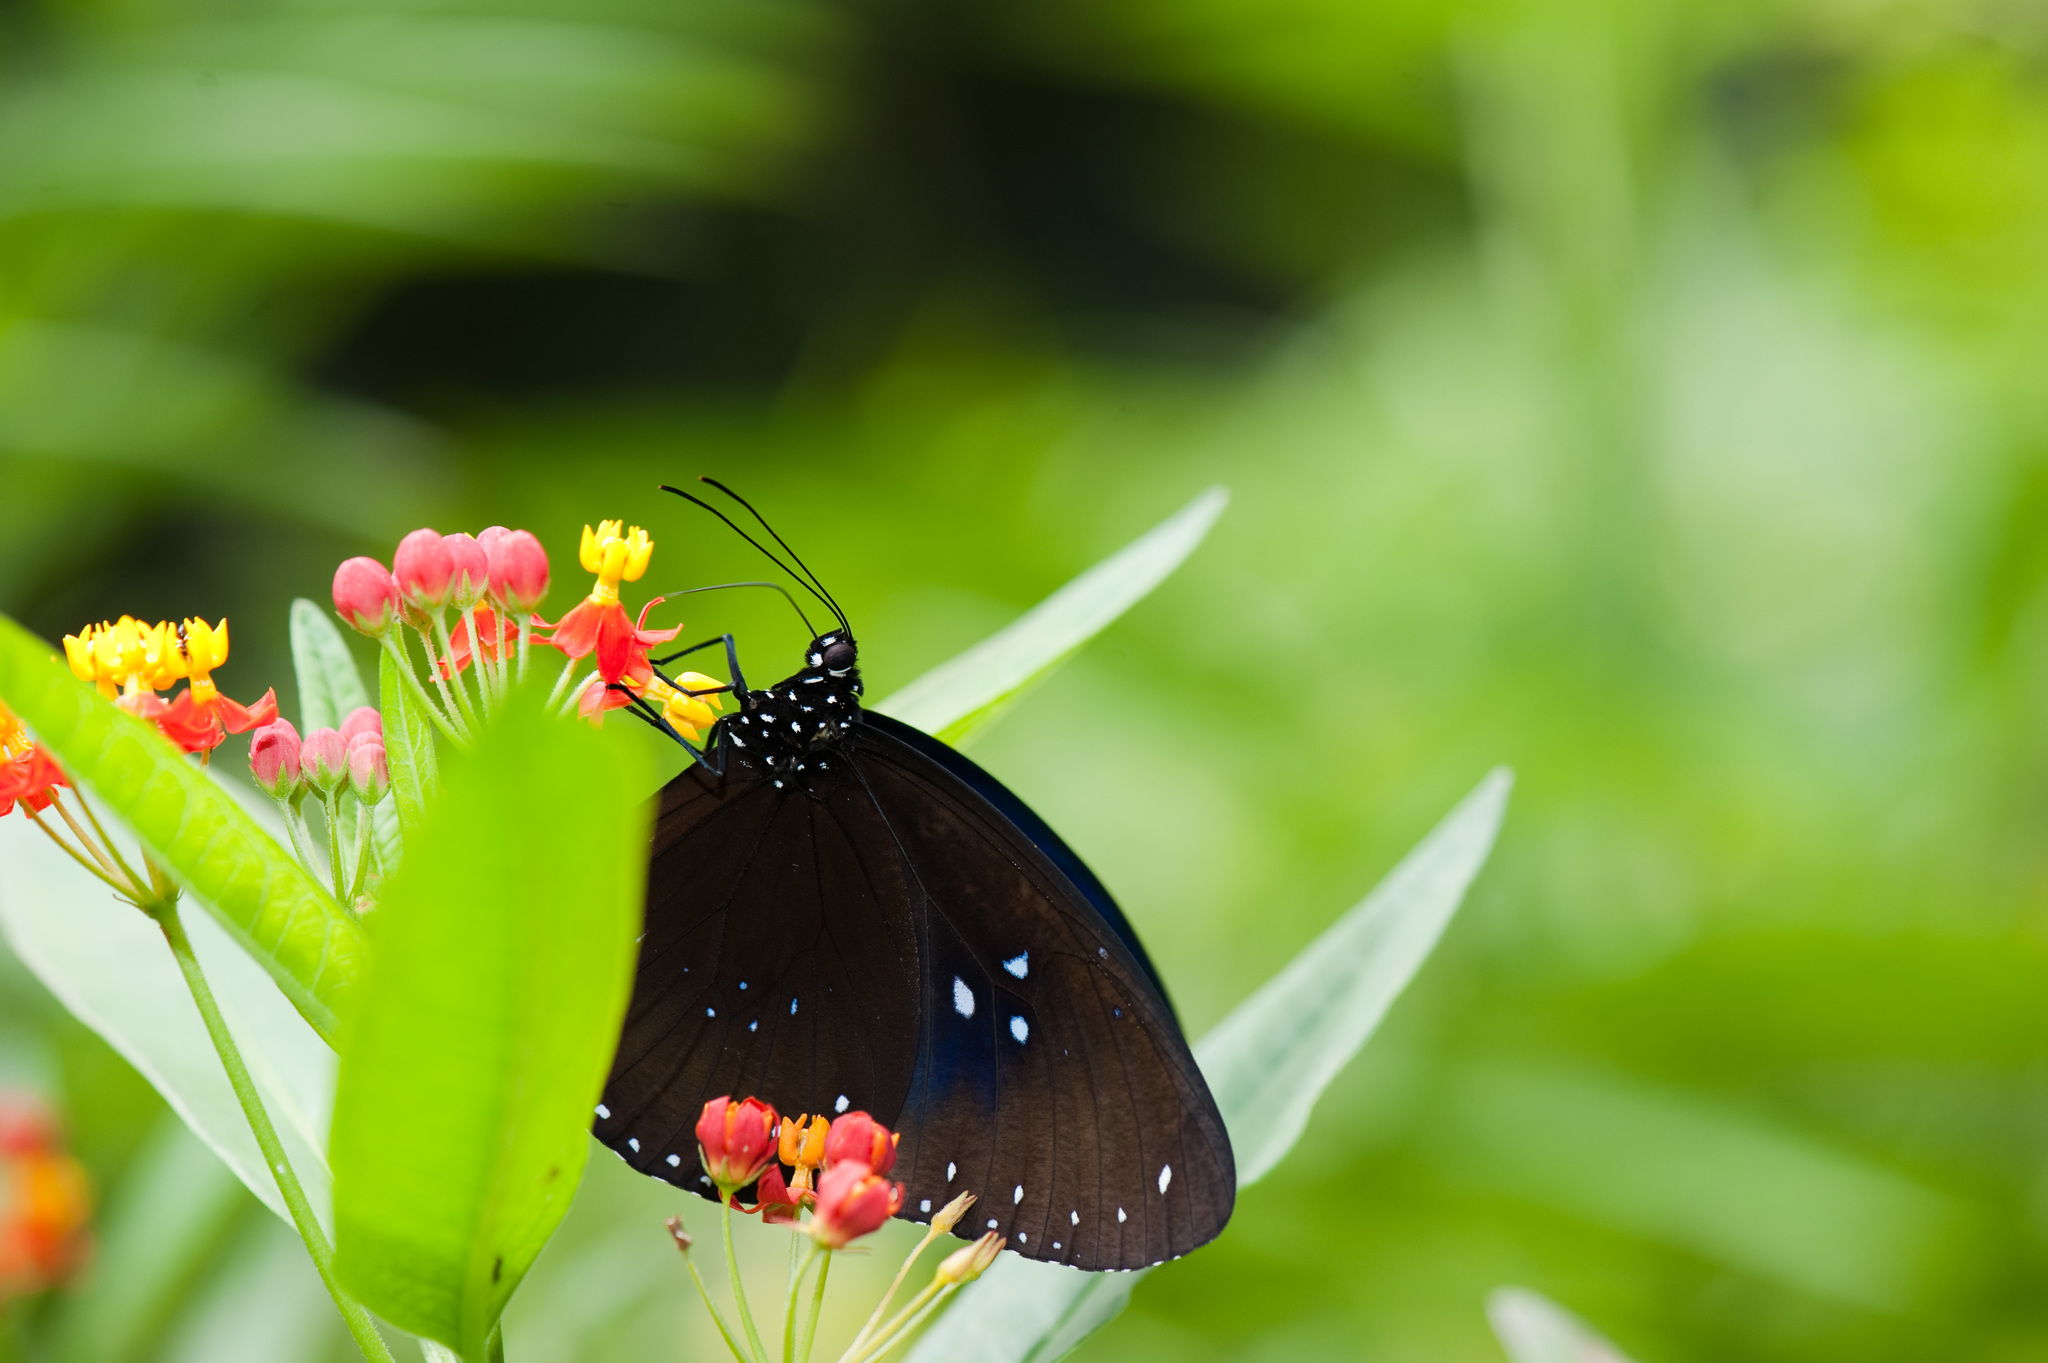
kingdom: Animalia
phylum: Arthropoda
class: Insecta
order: Lepidoptera
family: Nymphalidae
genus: Euploea
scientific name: Euploea sylvester
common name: Double-branded crow butterfly
